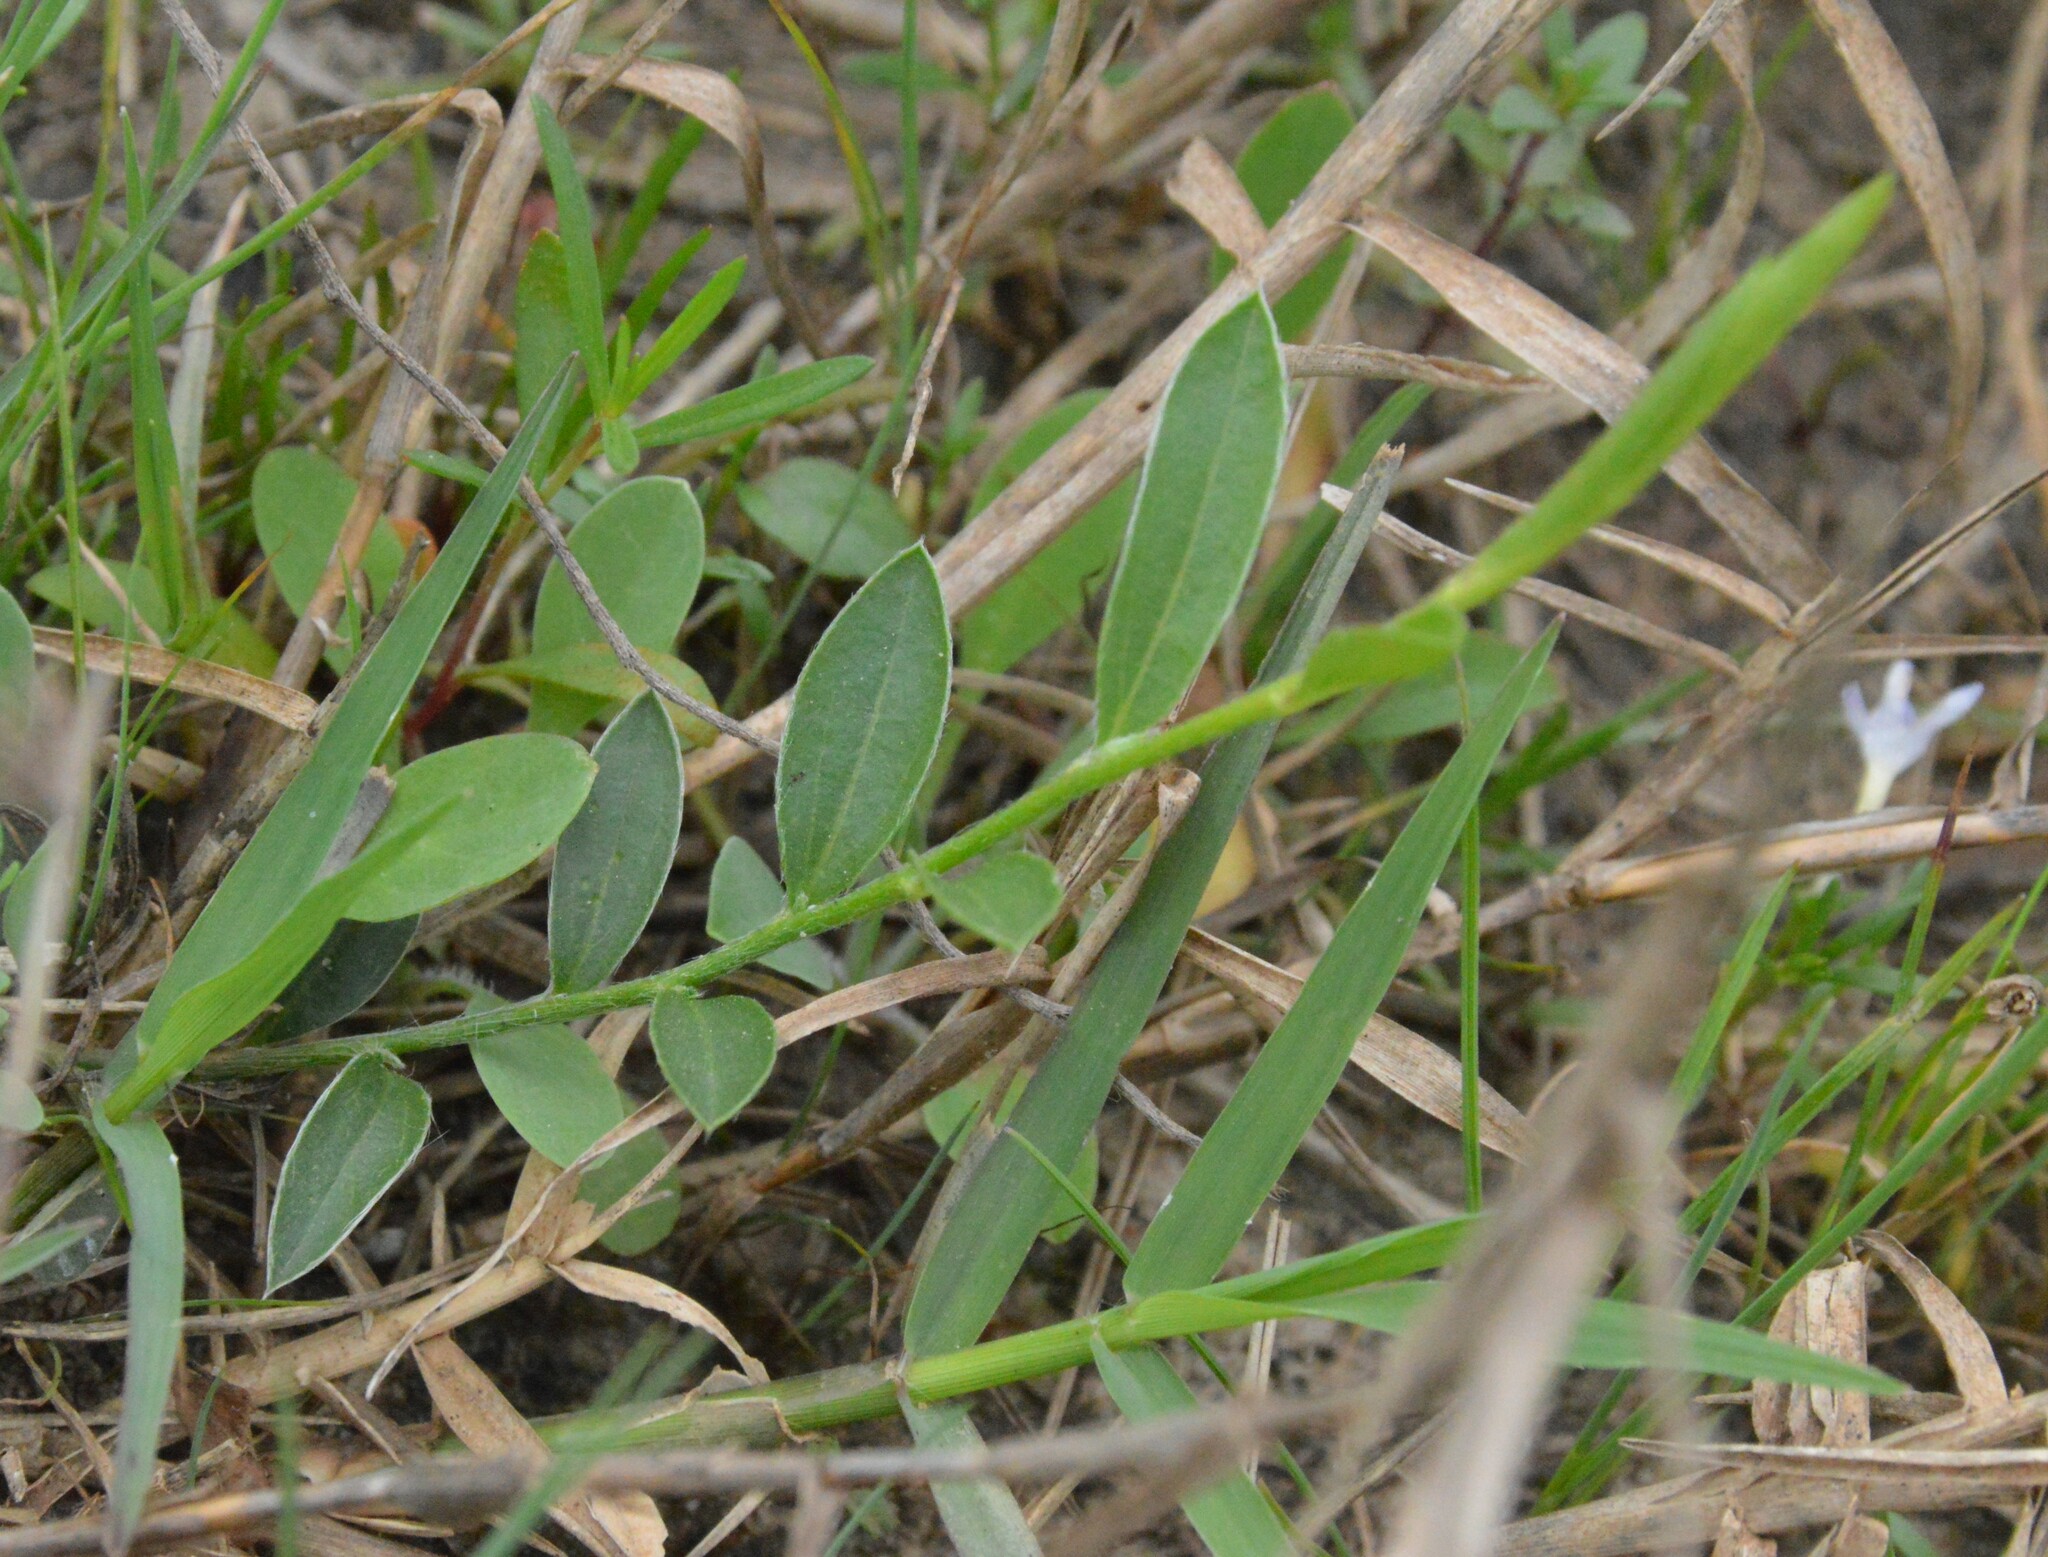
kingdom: Plantae
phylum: Tracheophyta
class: Magnoliopsida
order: Solanales
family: Convolvulaceae
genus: Evolvulus
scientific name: Evolvulus sericeus
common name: Blue dots
